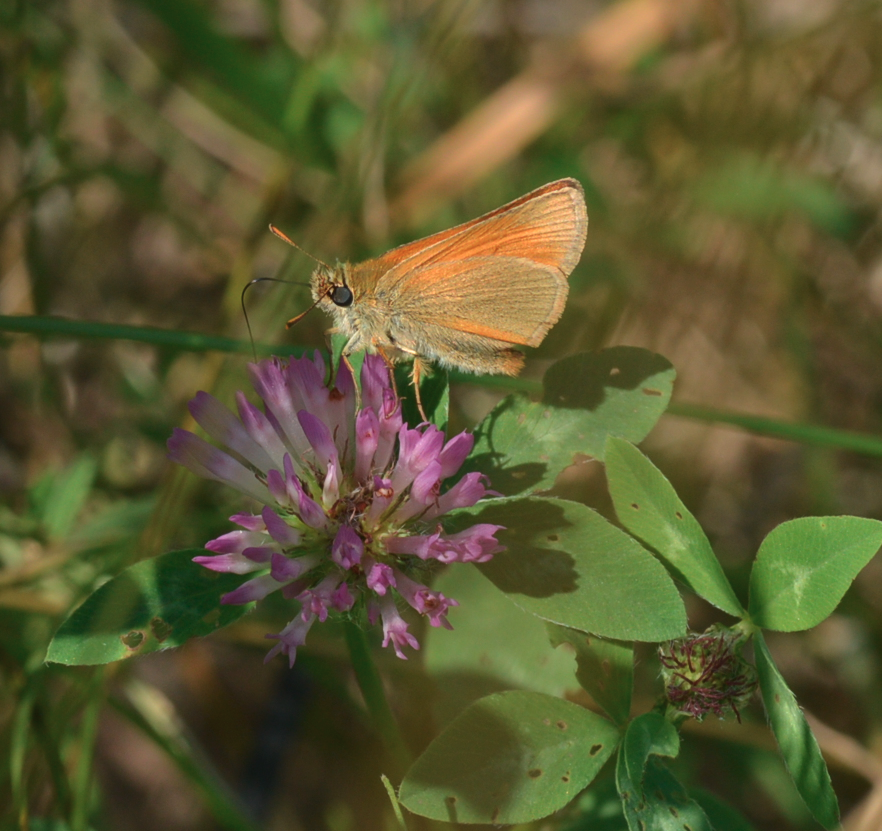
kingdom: Animalia
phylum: Arthropoda
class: Insecta
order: Lepidoptera
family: Hesperiidae
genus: Thymelicus
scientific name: Thymelicus sylvestris
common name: Small skipper
